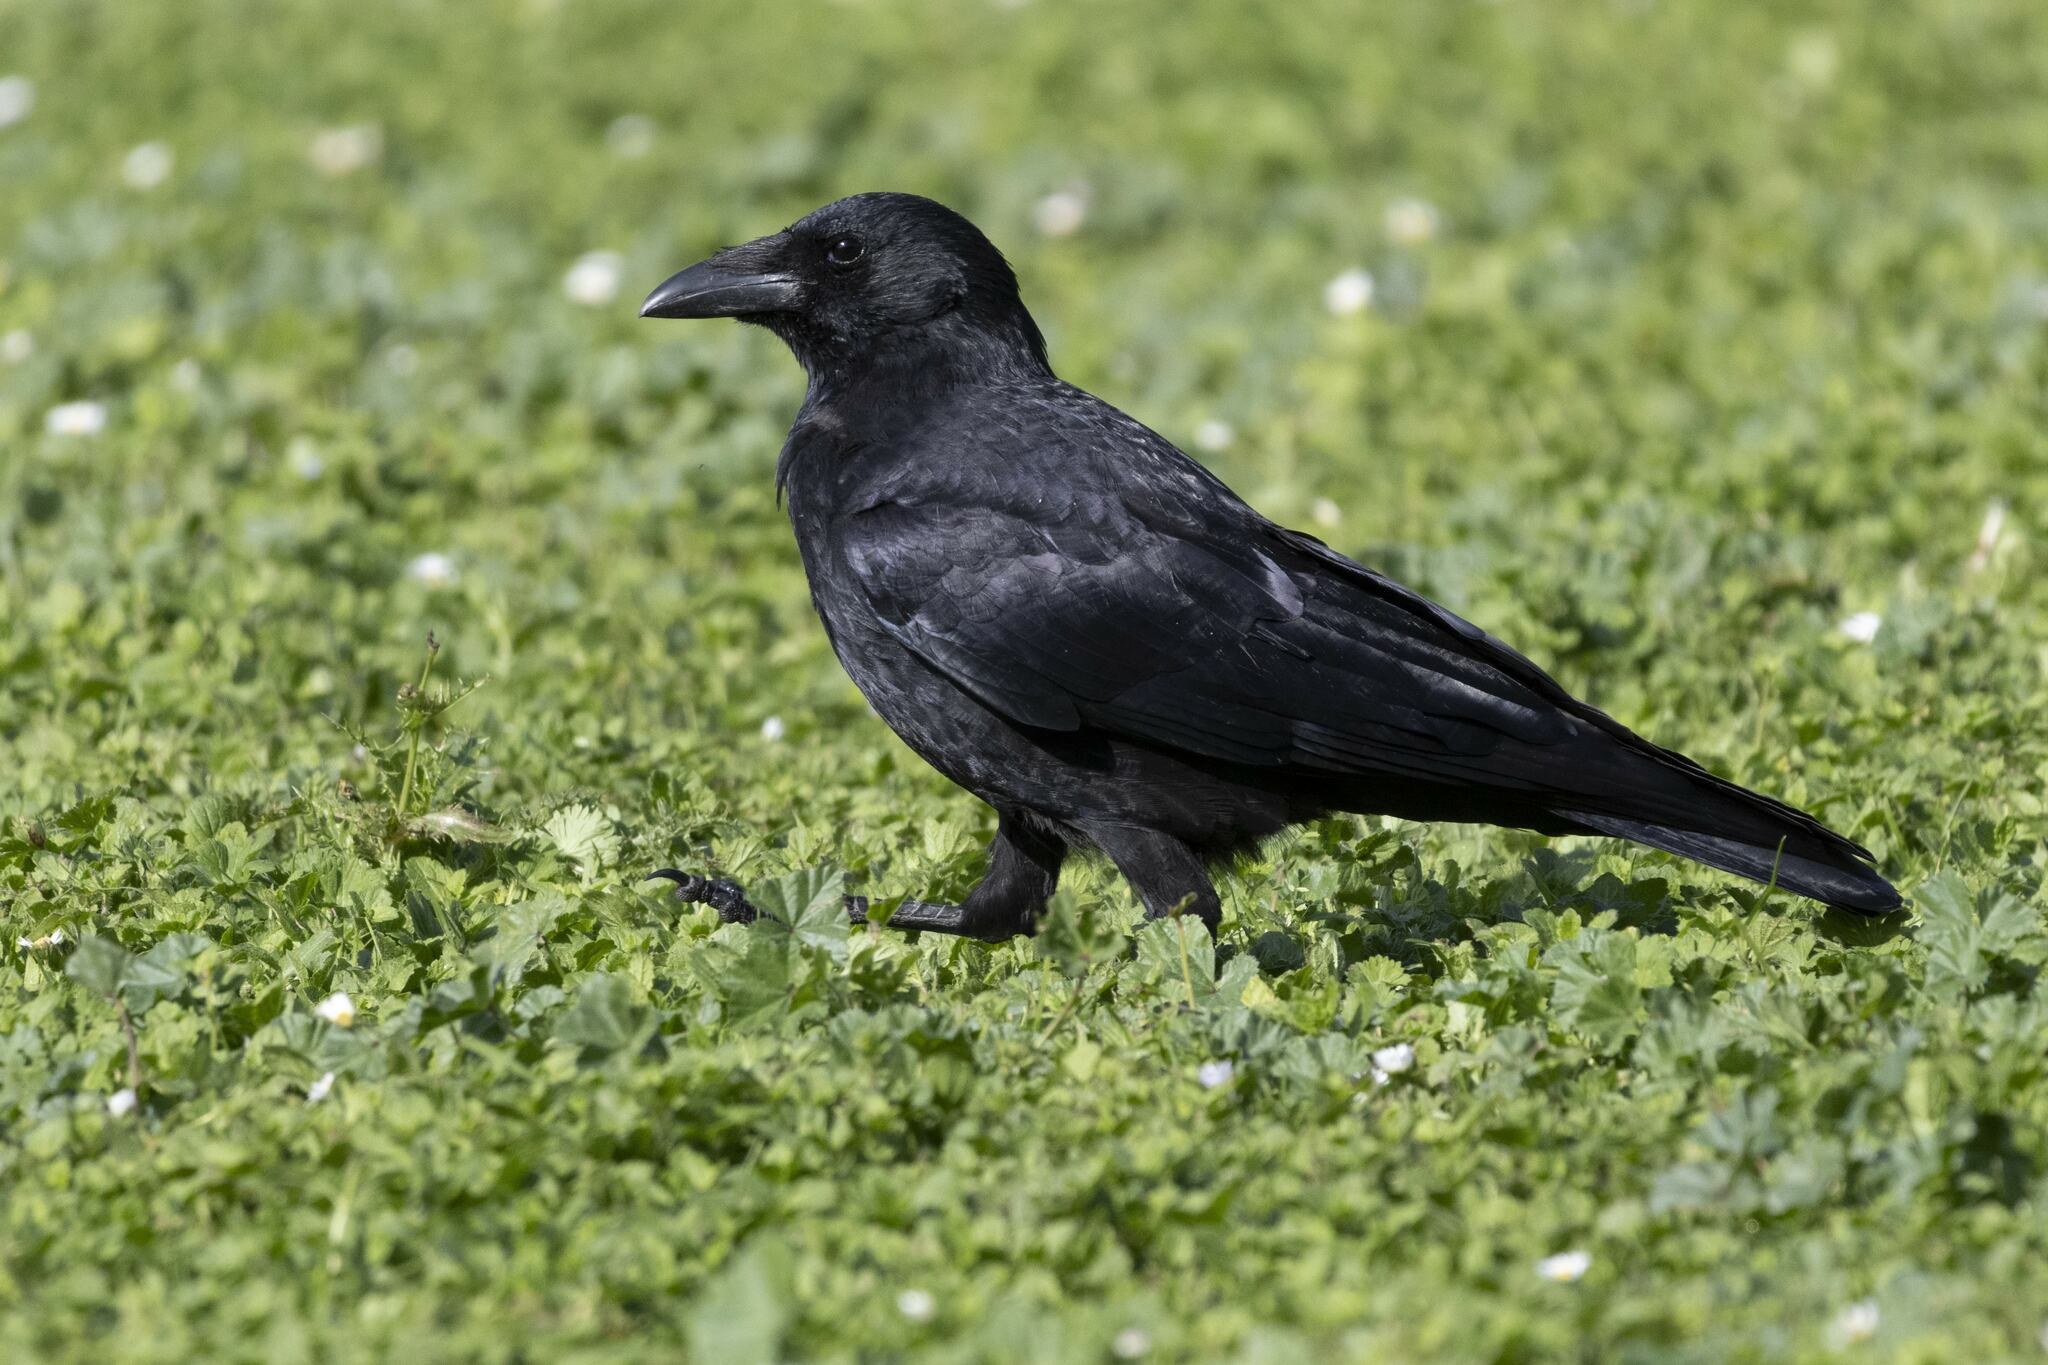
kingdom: Animalia
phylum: Chordata
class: Aves
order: Passeriformes
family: Corvidae
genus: Corvus
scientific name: Corvus corone
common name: Carrion crow
